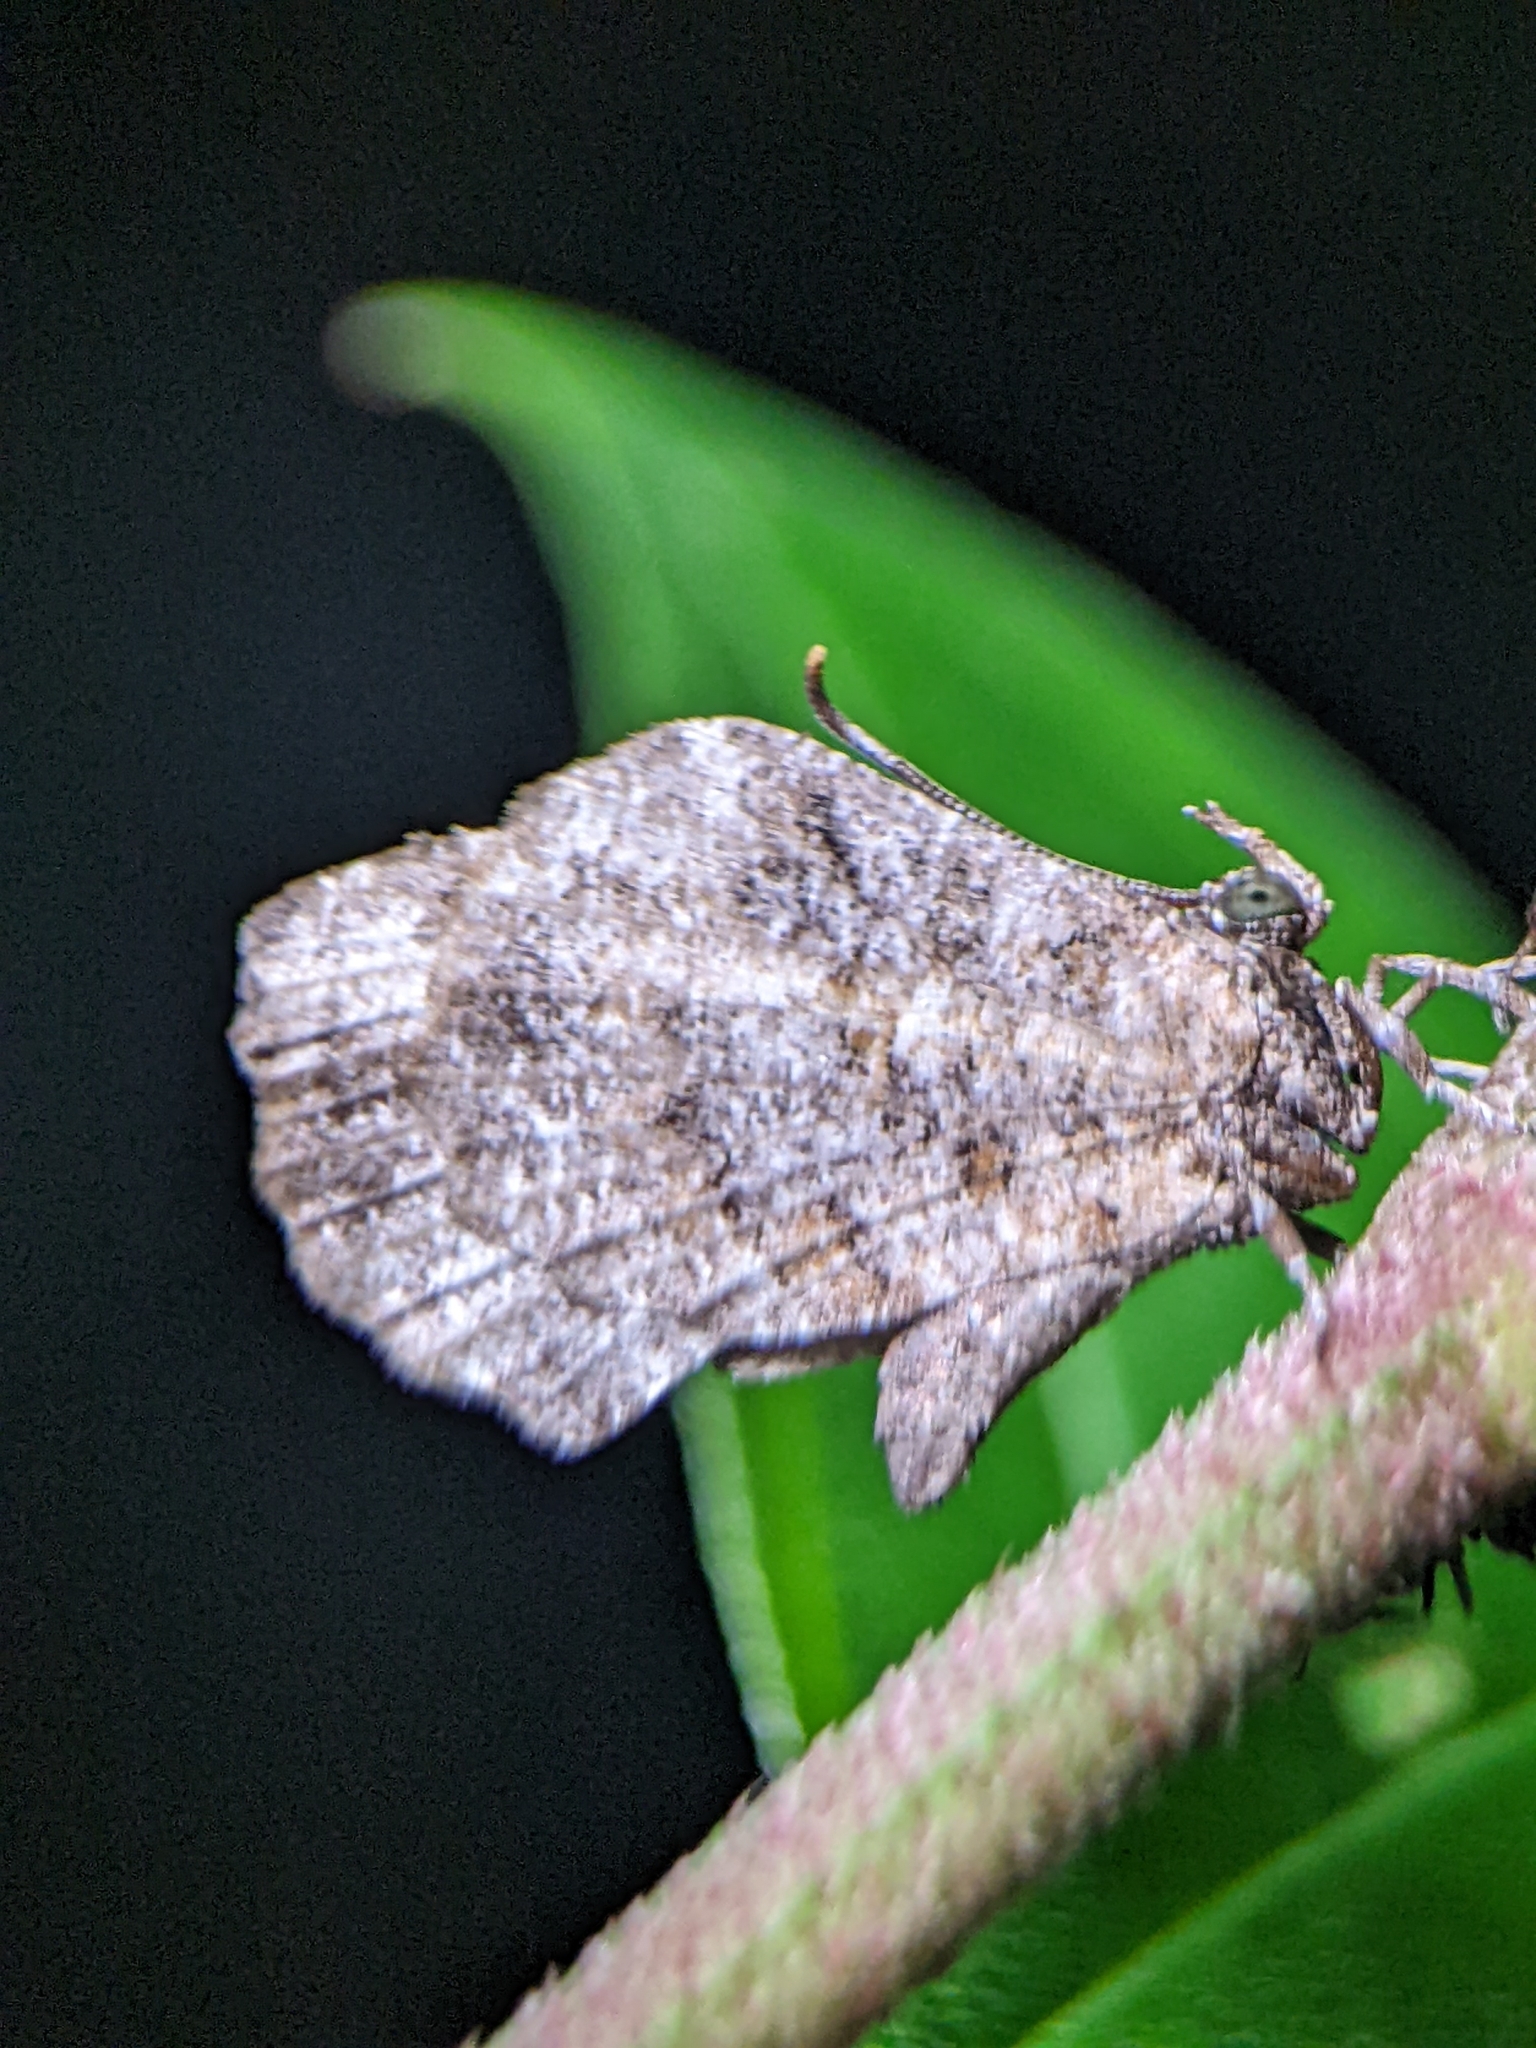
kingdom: Animalia
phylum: Arthropoda
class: Insecta
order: Lepidoptera
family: Lycaenidae
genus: Logania
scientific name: Logania marmorata
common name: Pale mottle
